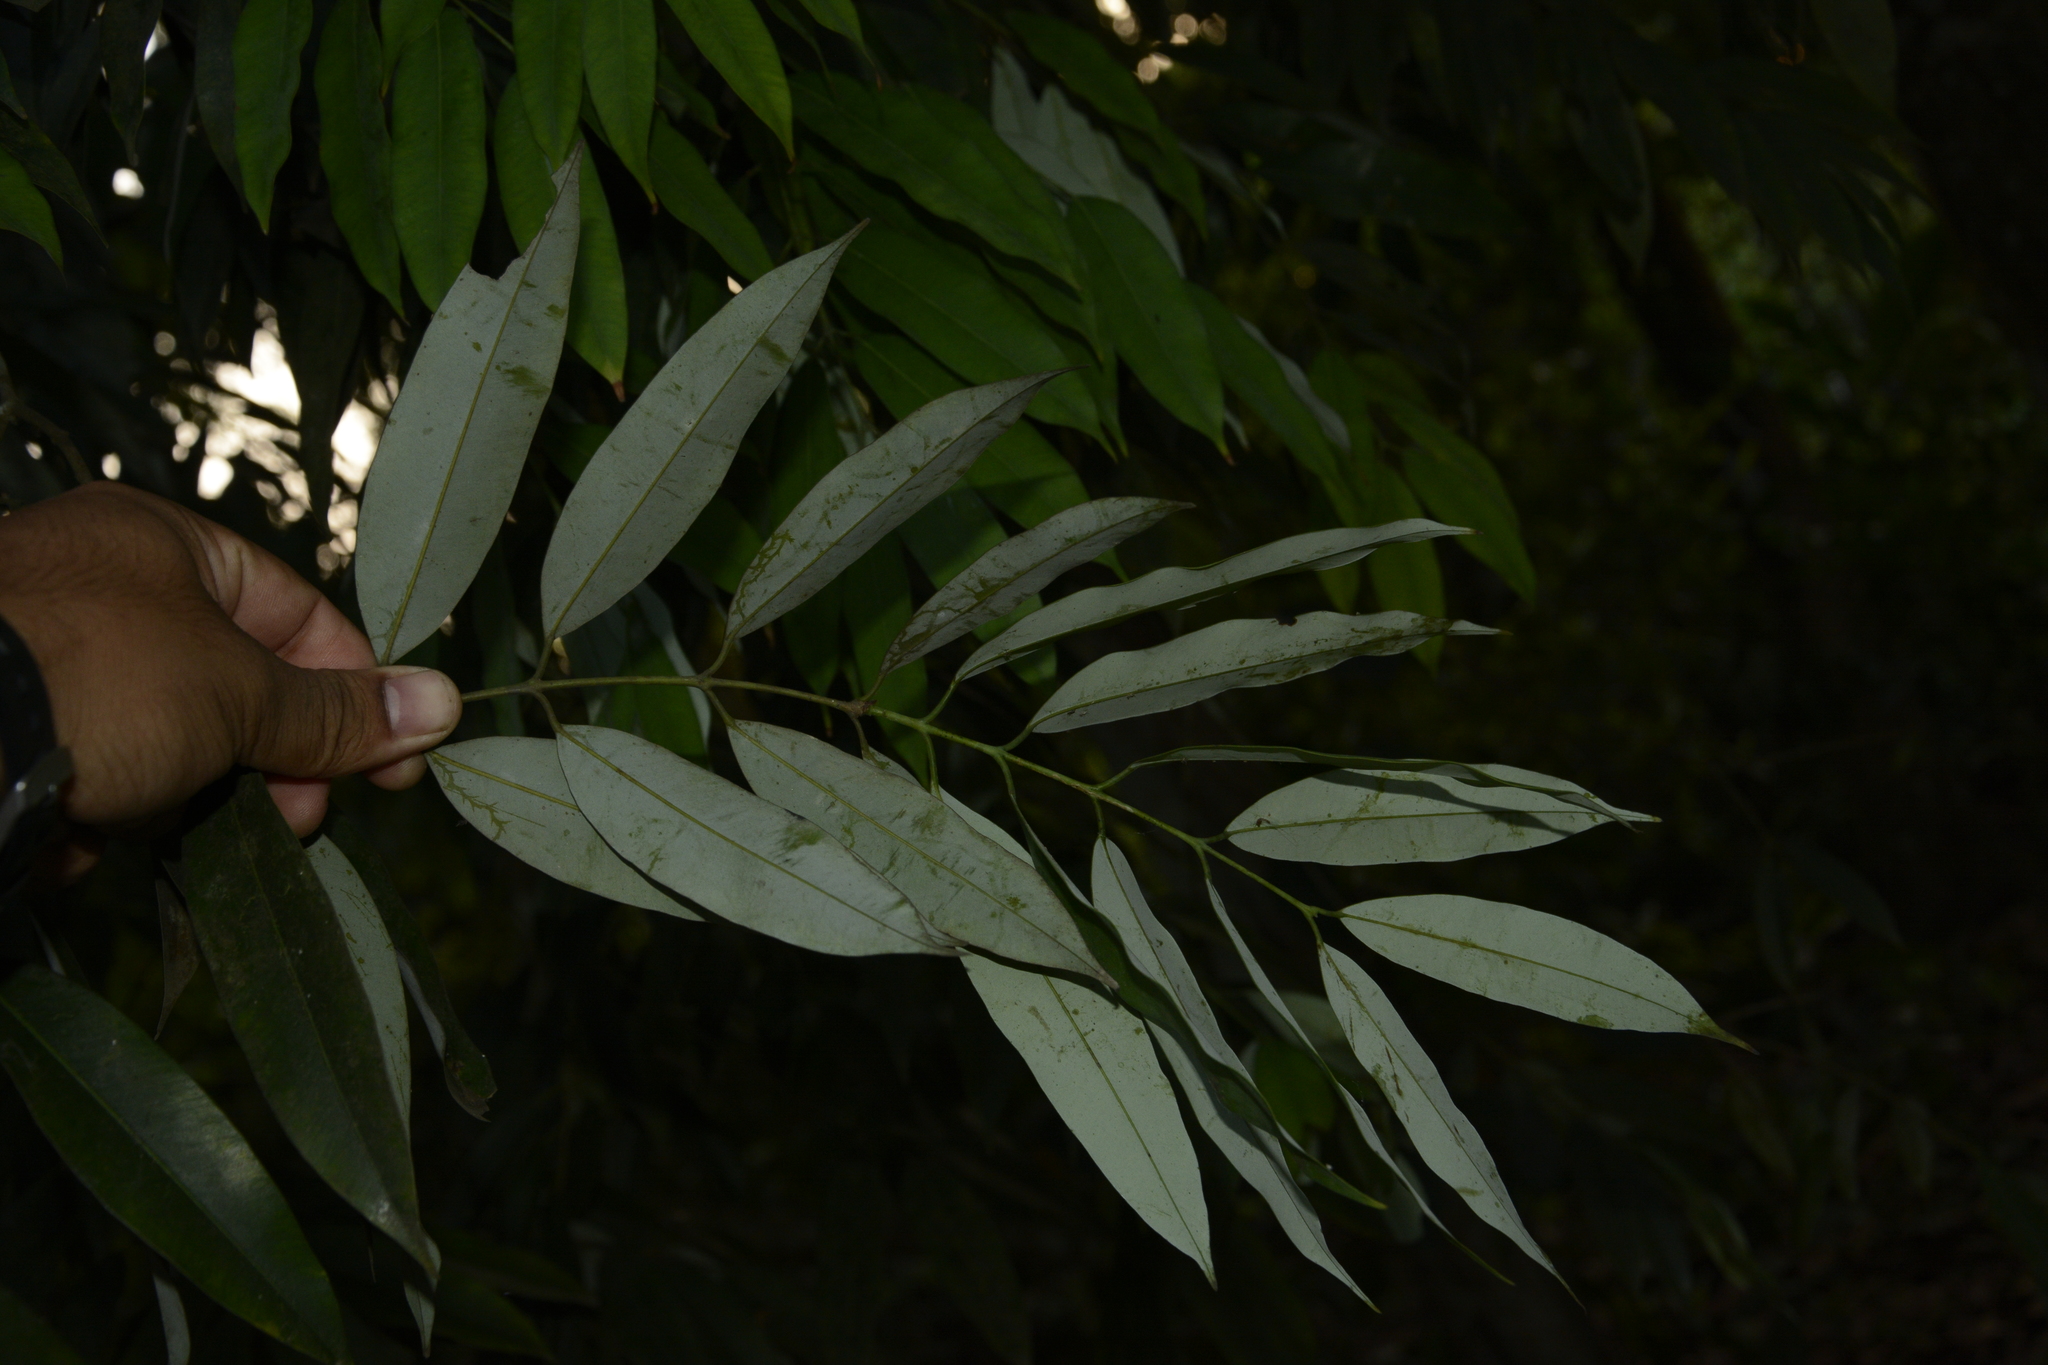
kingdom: Plantae
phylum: Tracheophyta
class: Magnoliopsida
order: Malpighiales
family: Calophyllaceae
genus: Mesua
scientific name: Mesua ferrea
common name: Mesua
